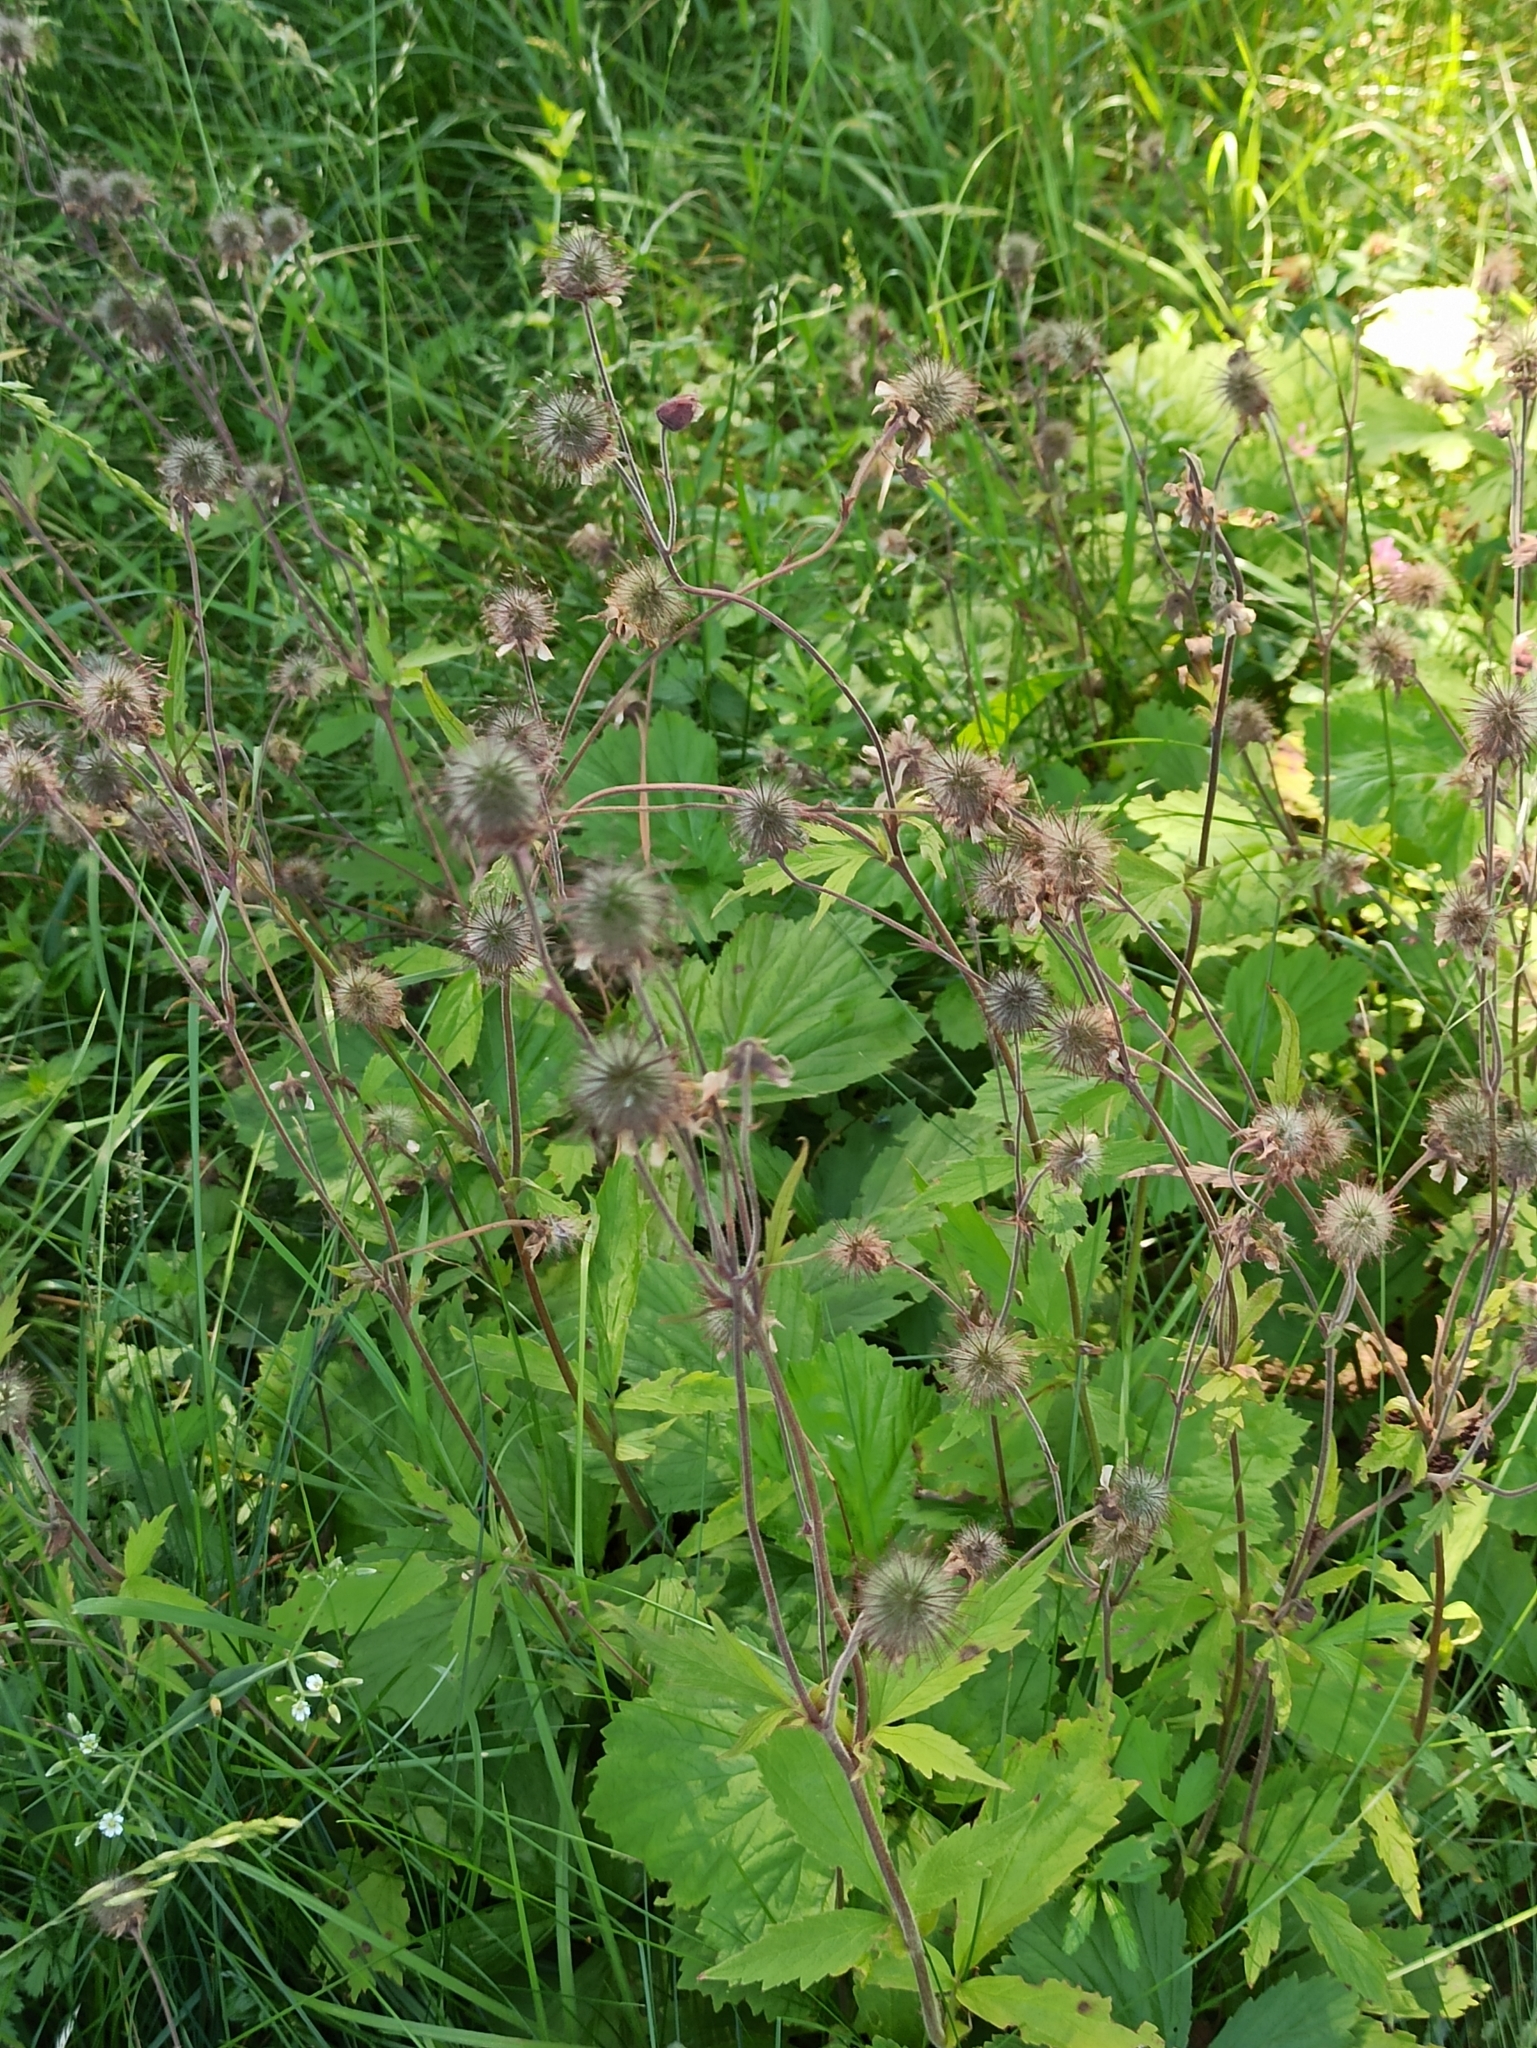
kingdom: Plantae
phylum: Tracheophyta
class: Magnoliopsida
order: Rosales
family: Rosaceae
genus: Geum
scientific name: Geum rivale
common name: Water avens
